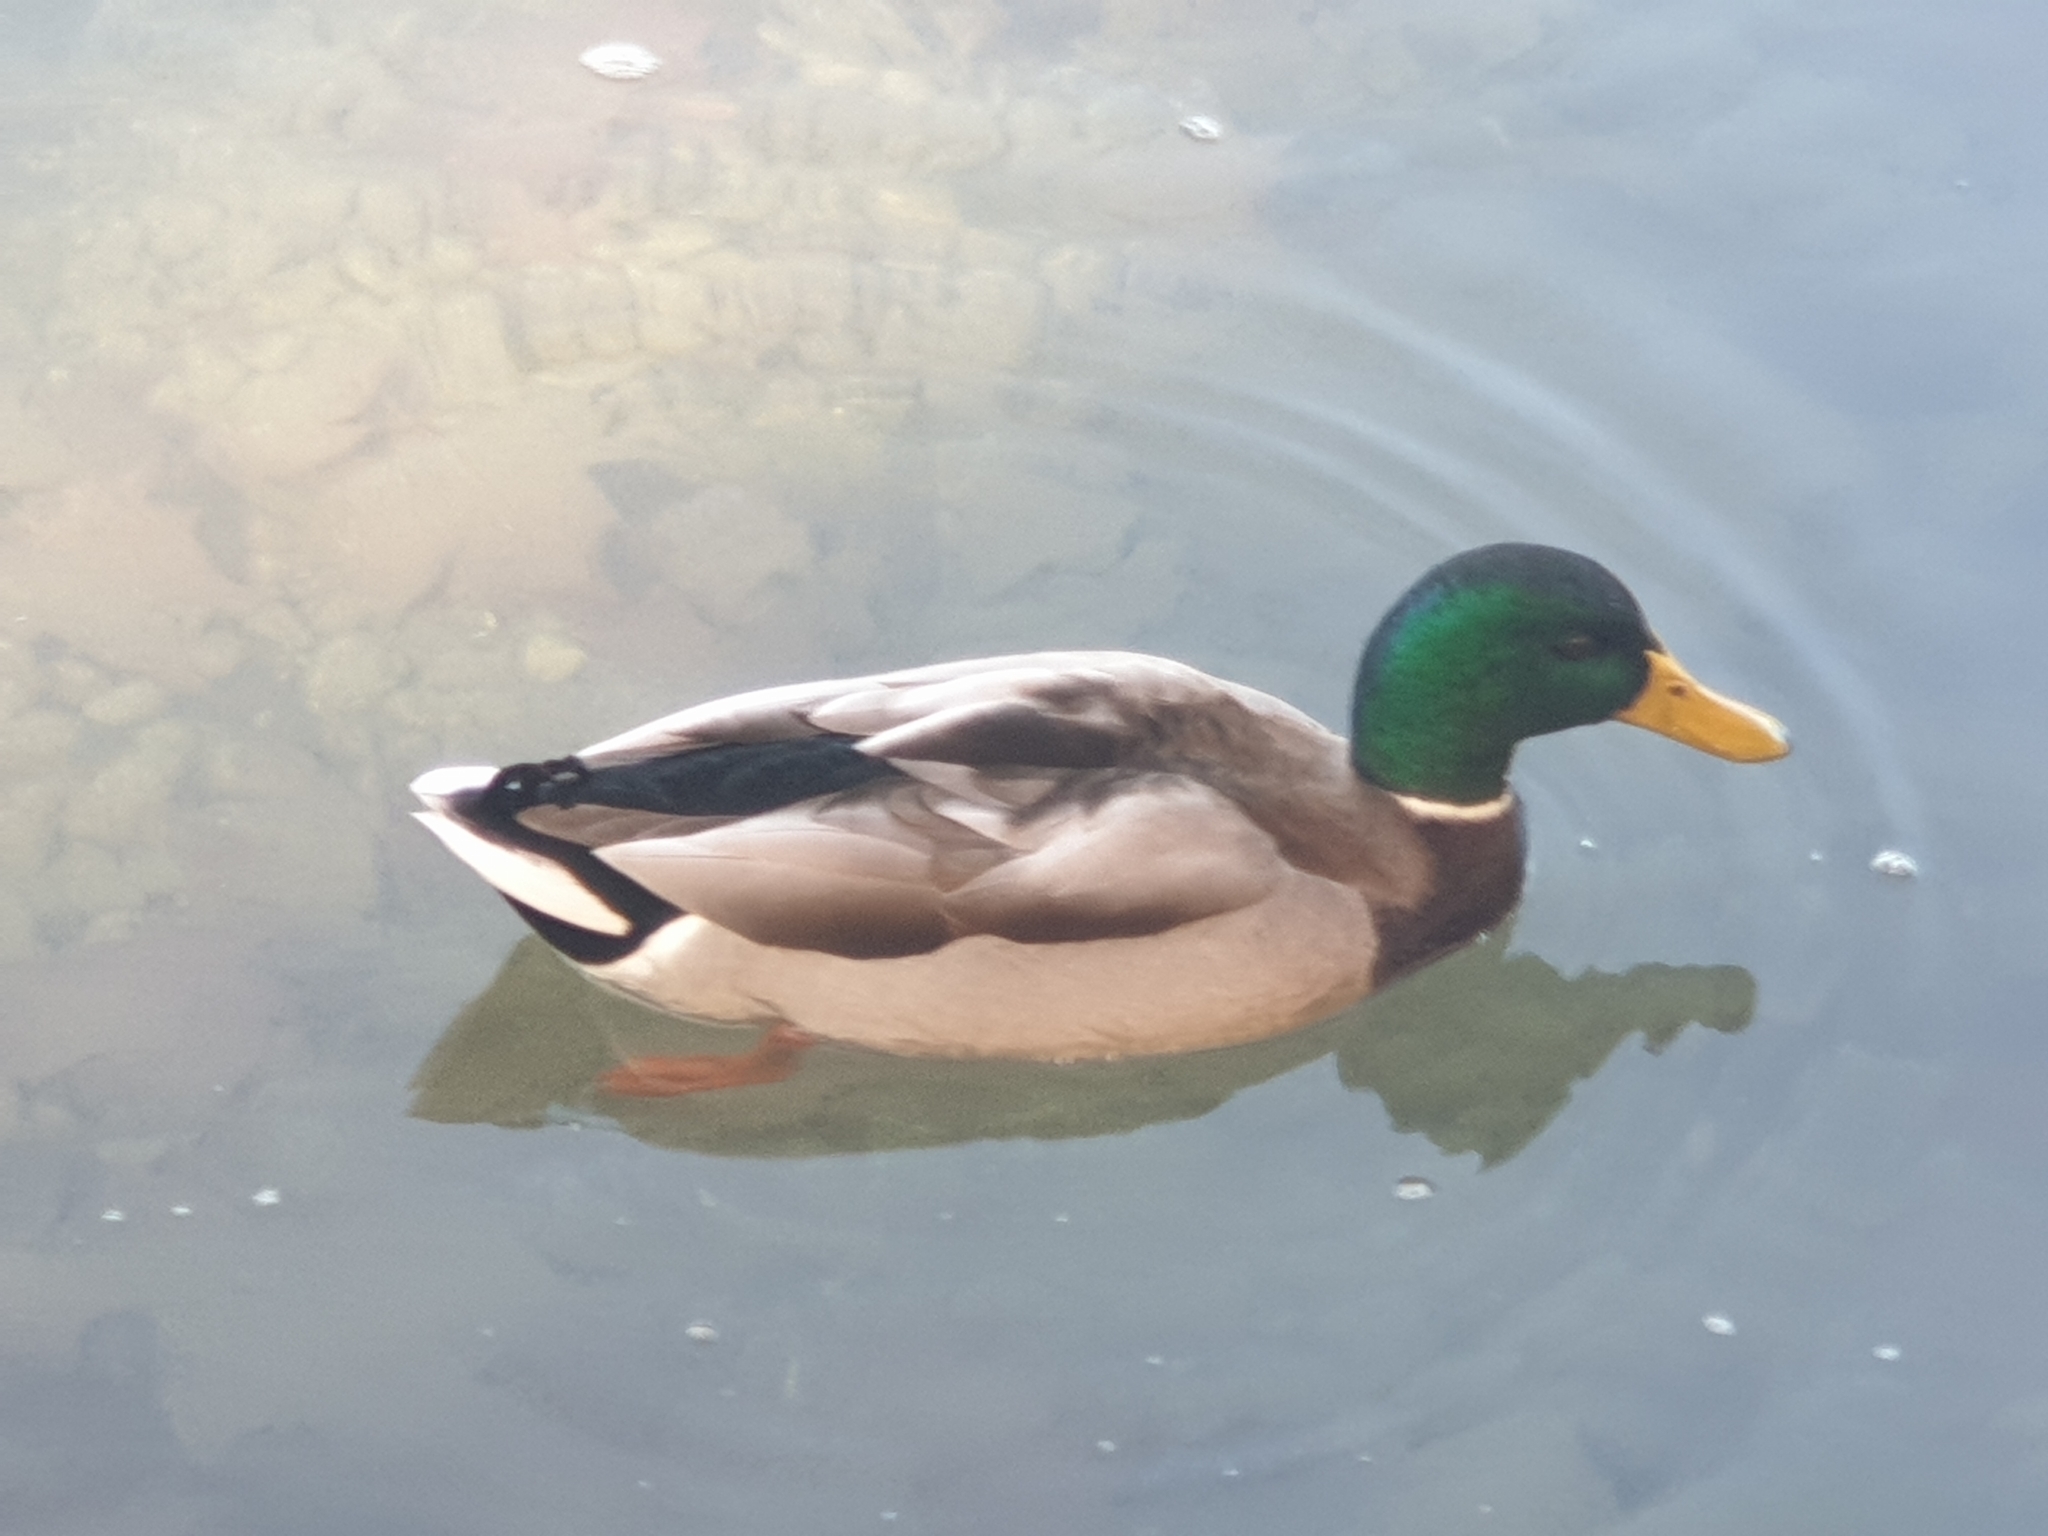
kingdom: Animalia
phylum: Chordata
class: Aves
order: Anseriformes
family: Anatidae
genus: Anas
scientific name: Anas platyrhynchos
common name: Mallard
